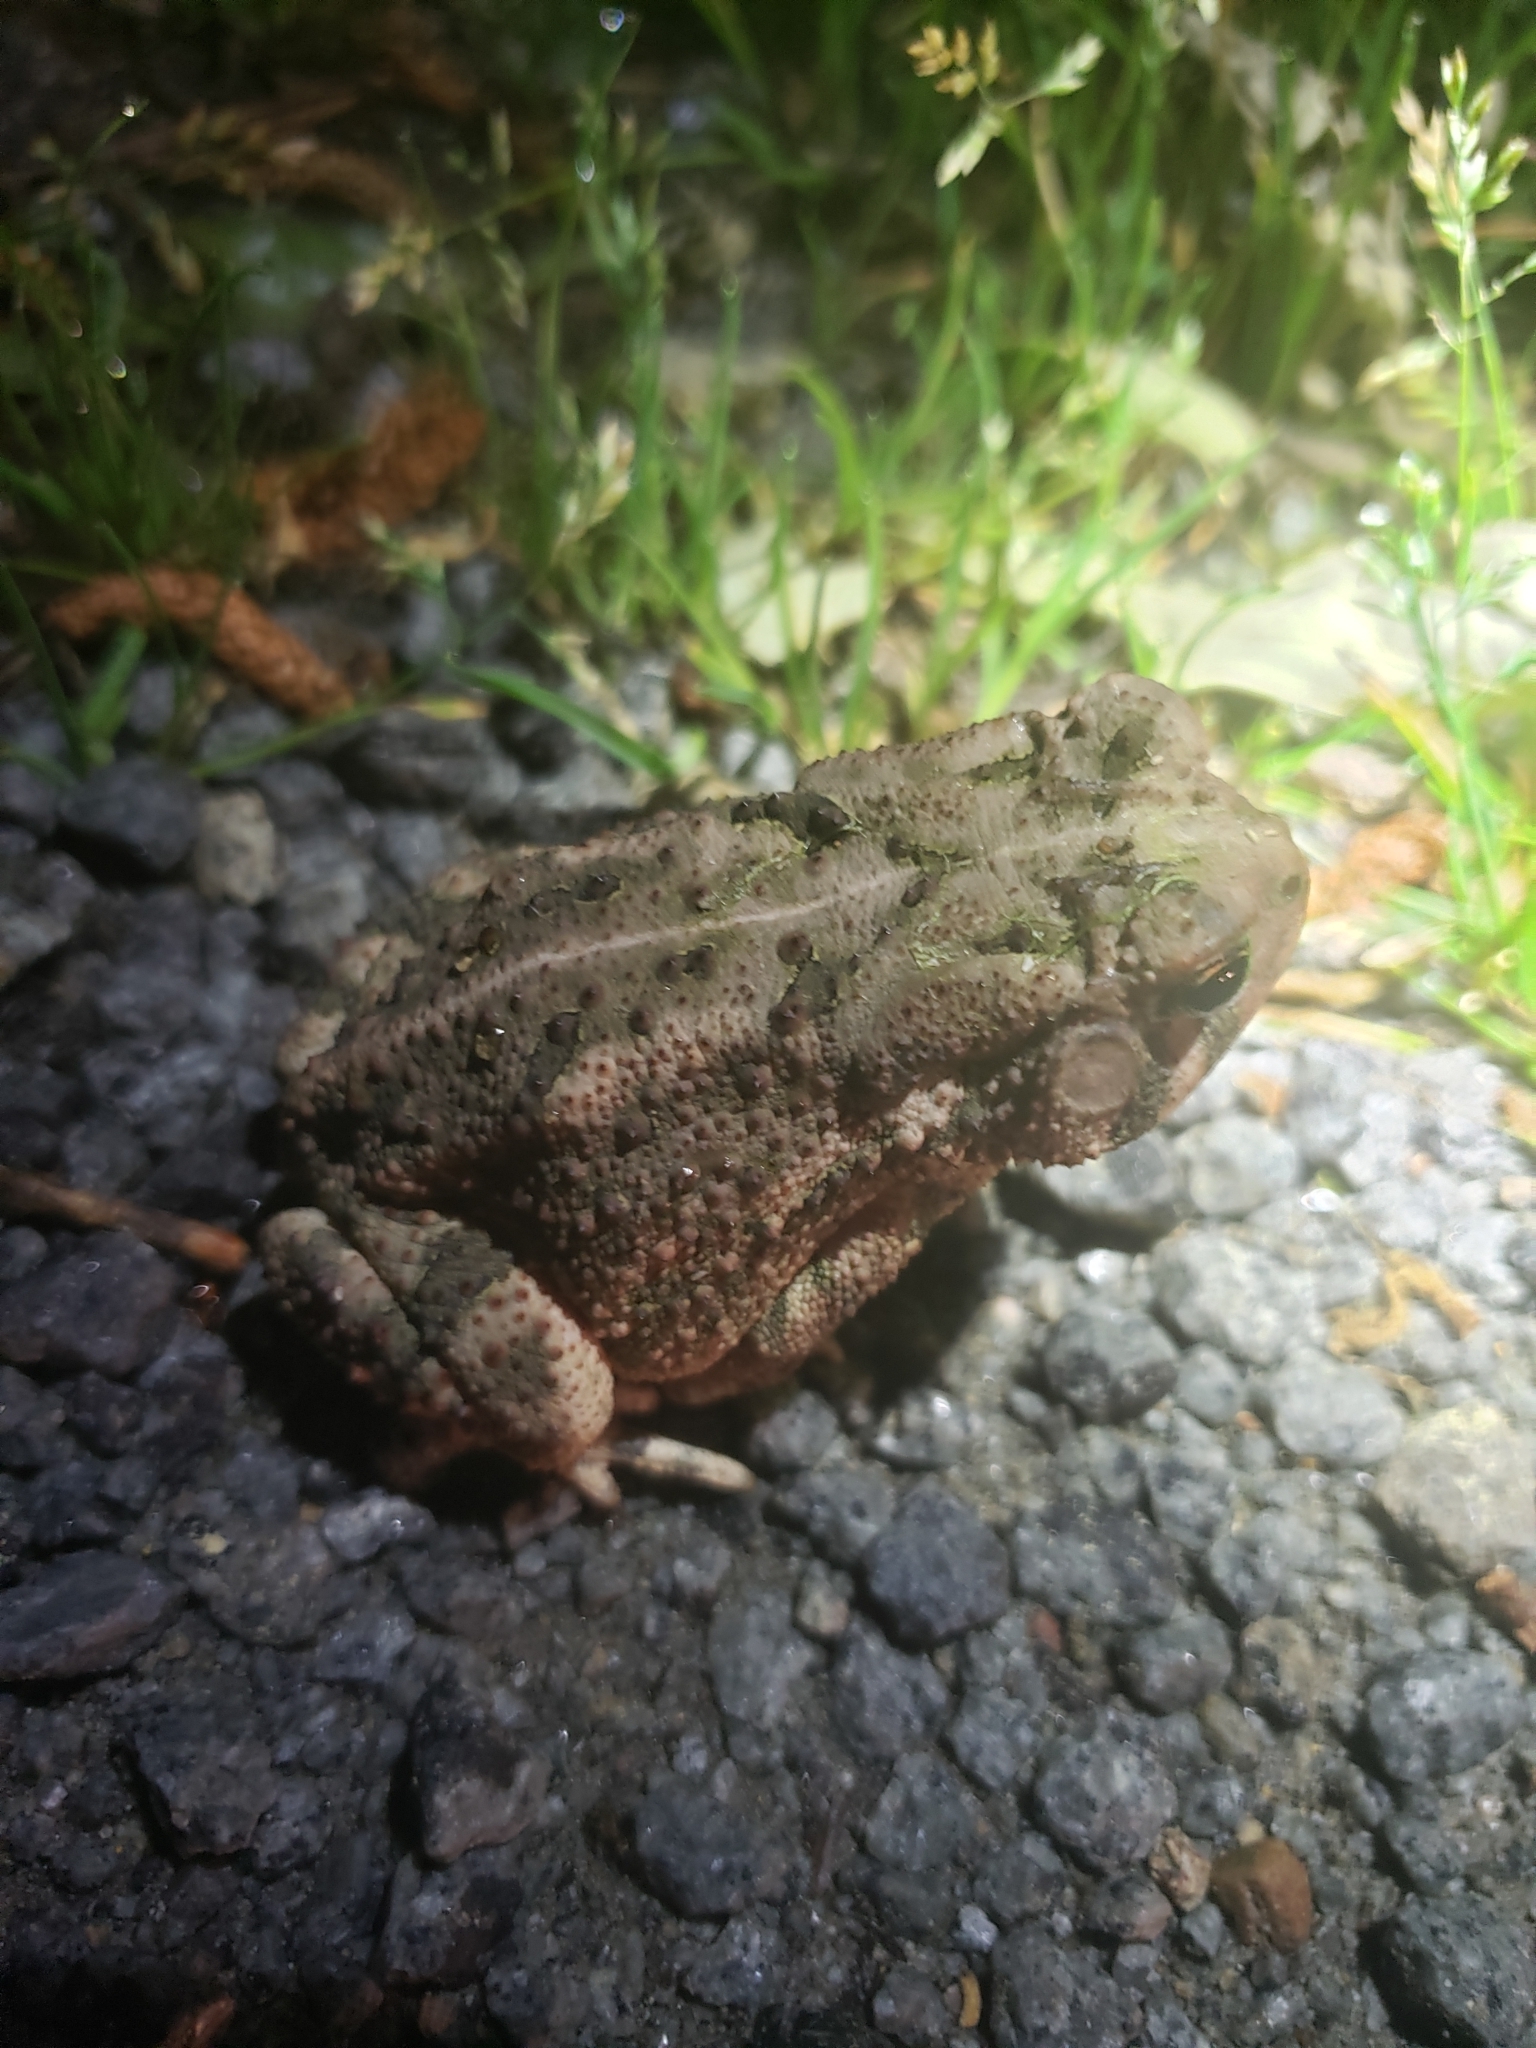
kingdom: Animalia
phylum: Chordata
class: Amphibia
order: Anura
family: Bufonidae
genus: Anaxyrus
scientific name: Anaxyrus fowleri
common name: Fowler's toad
